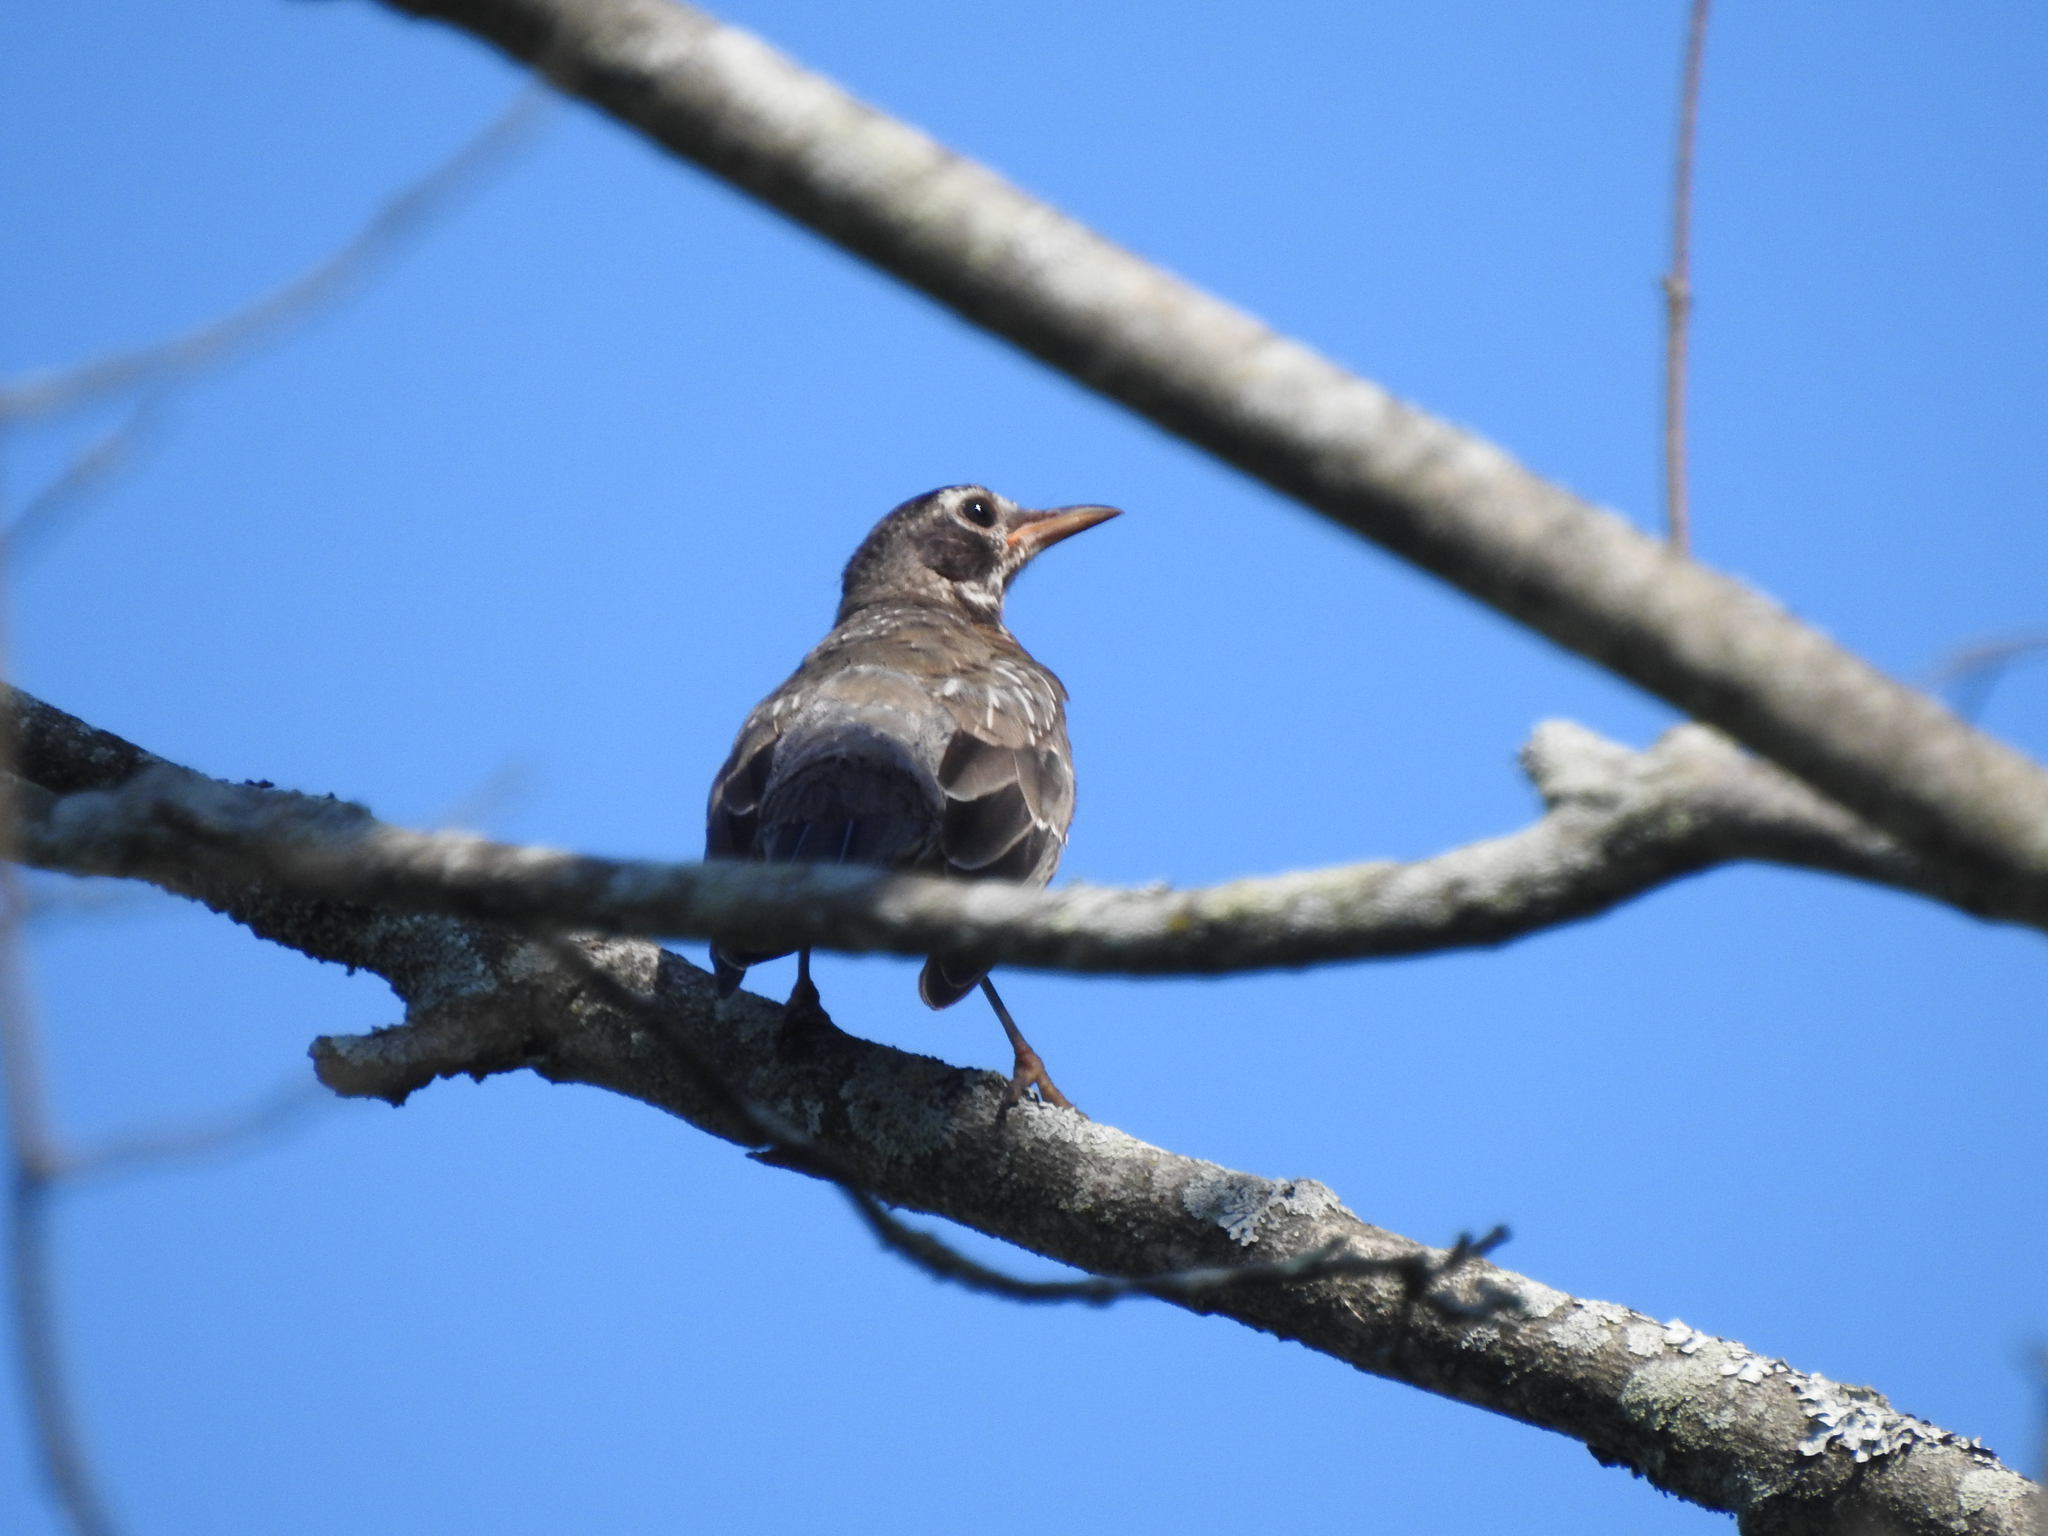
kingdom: Animalia
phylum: Chordata
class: Aves
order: Passeriformes
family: Turdidae
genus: Turdus
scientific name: Turdus migratorius
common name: American robin
